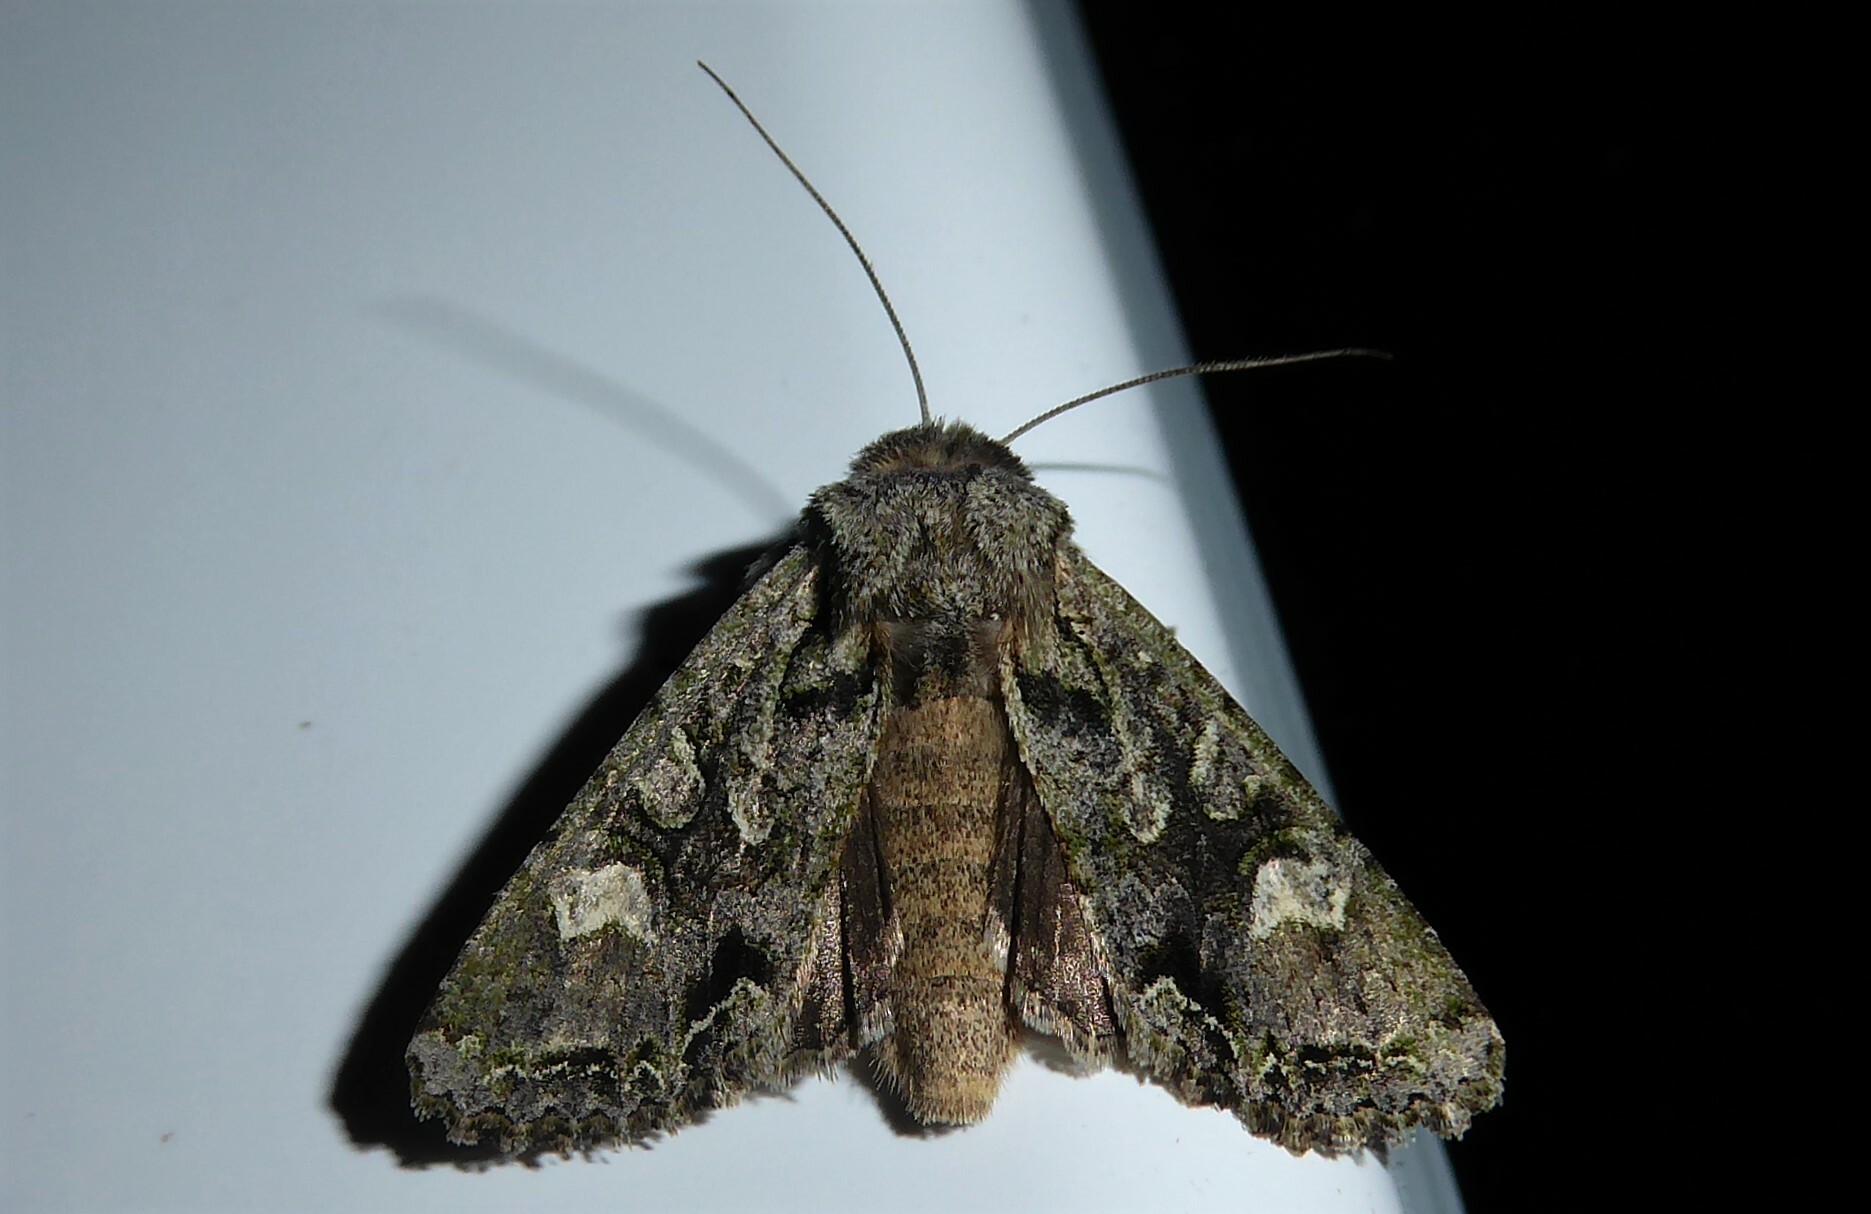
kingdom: Animalia
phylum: Arthropoda
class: Insecta
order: Lepidoptera
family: Noctuidae
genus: Ichneutica
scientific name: Ichneutica
